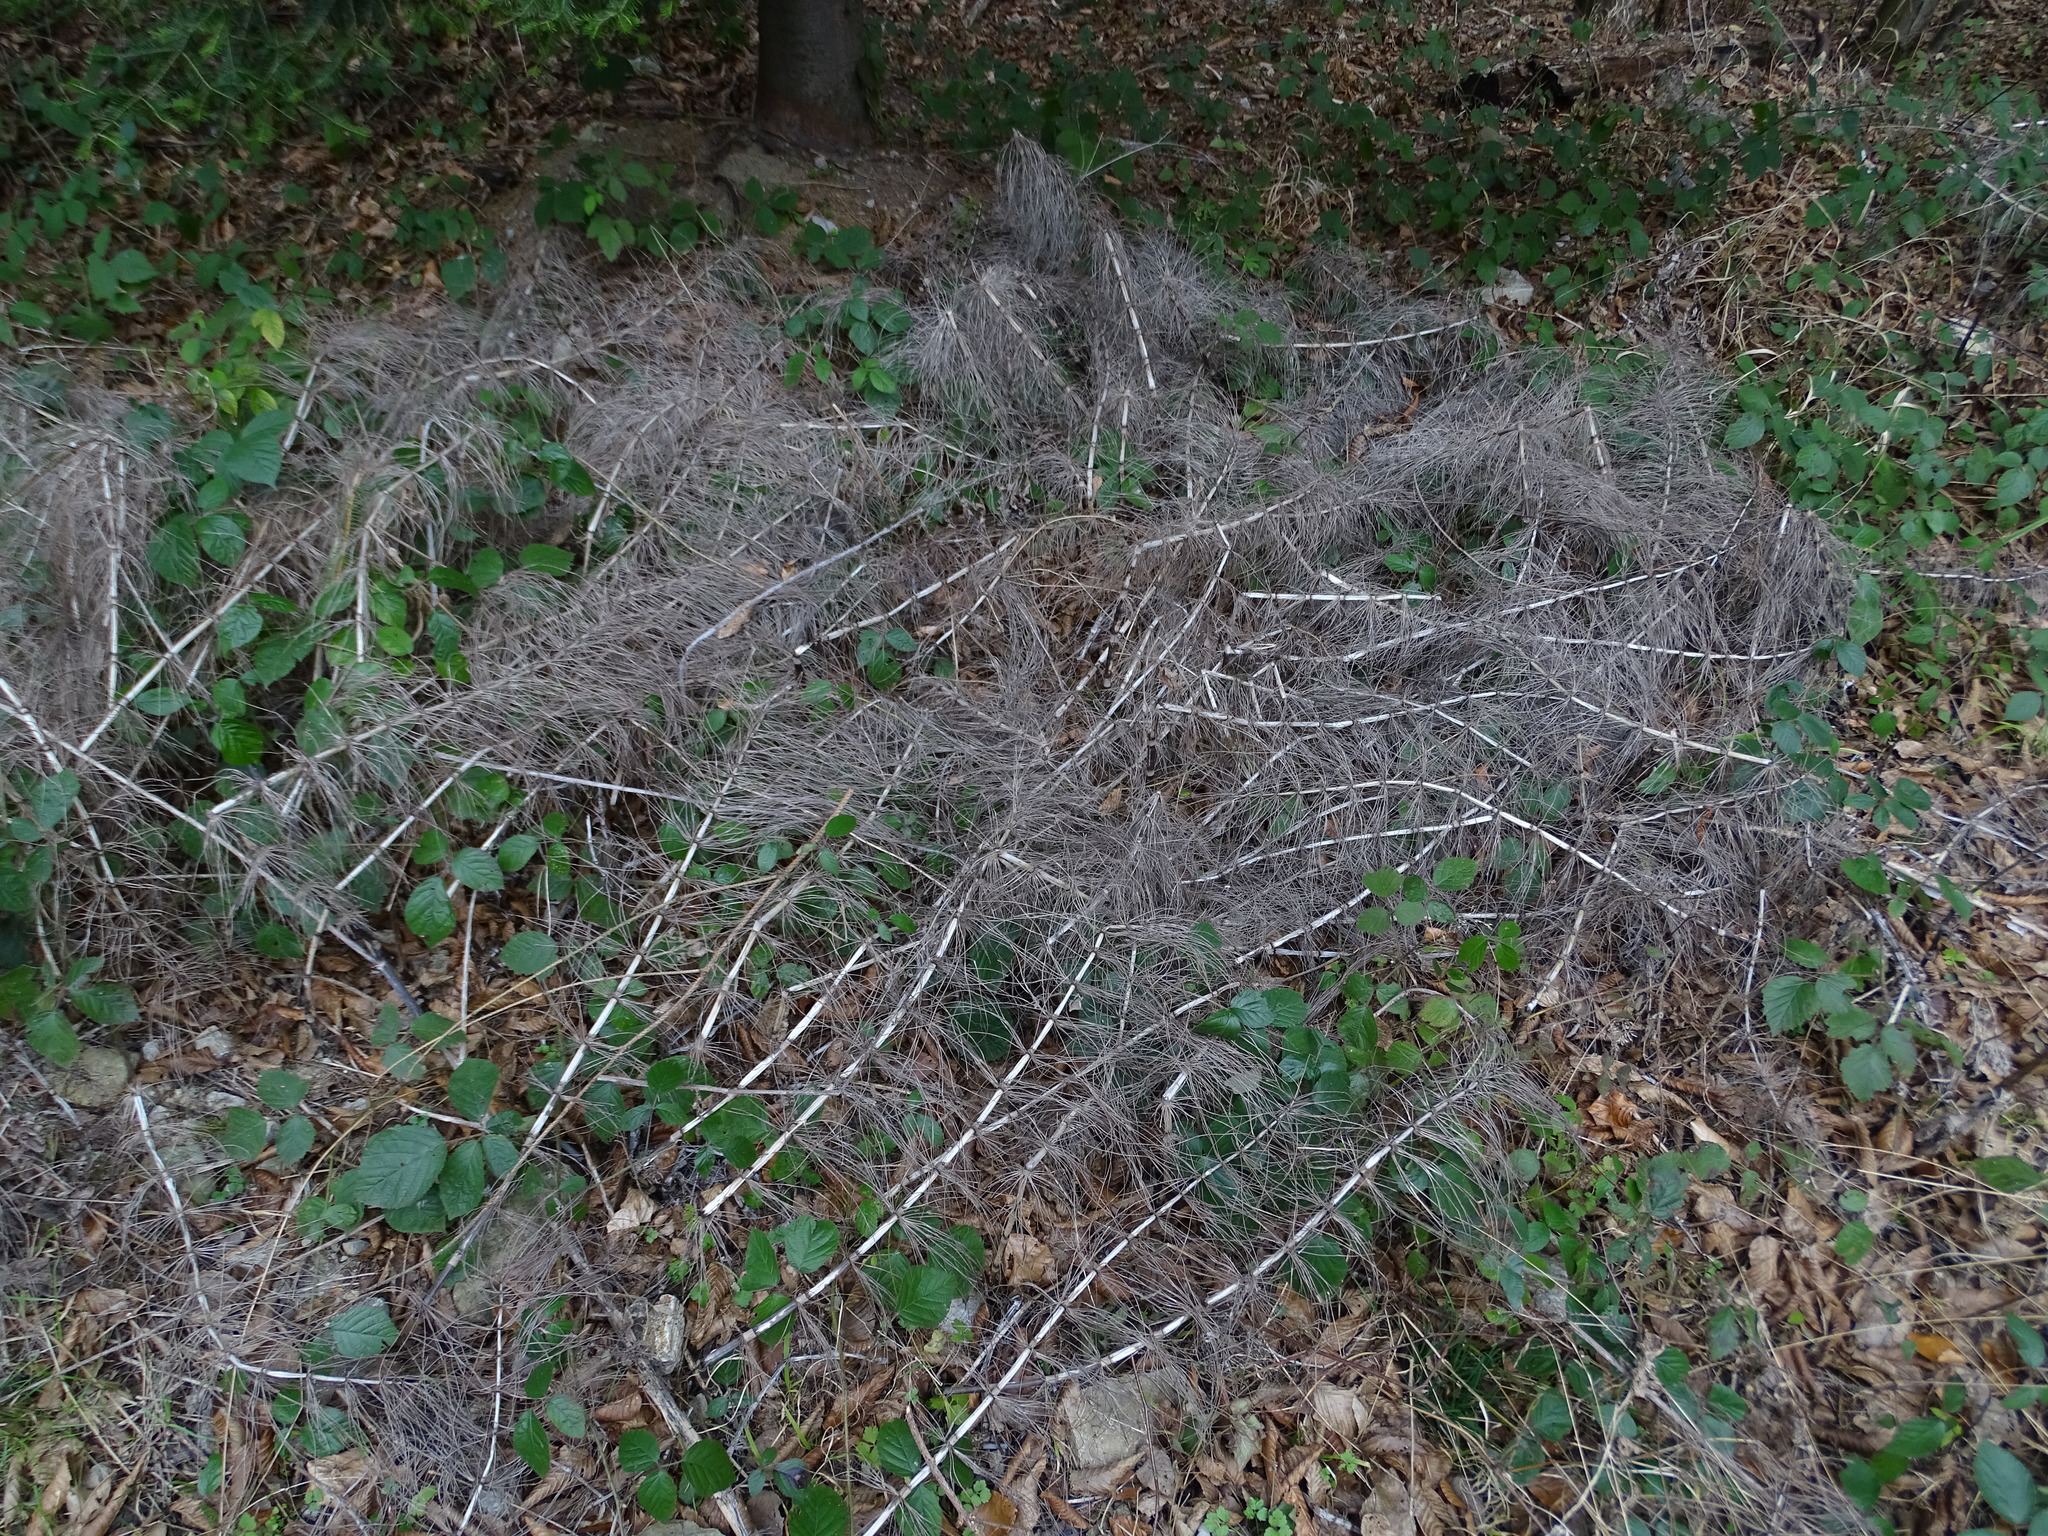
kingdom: Plantae
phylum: Tracheophyta
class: Polypodiopsida
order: Equisetales
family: Equisetaceae
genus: Equisetum
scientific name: Equisetum telmateia
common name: Great horsetail
